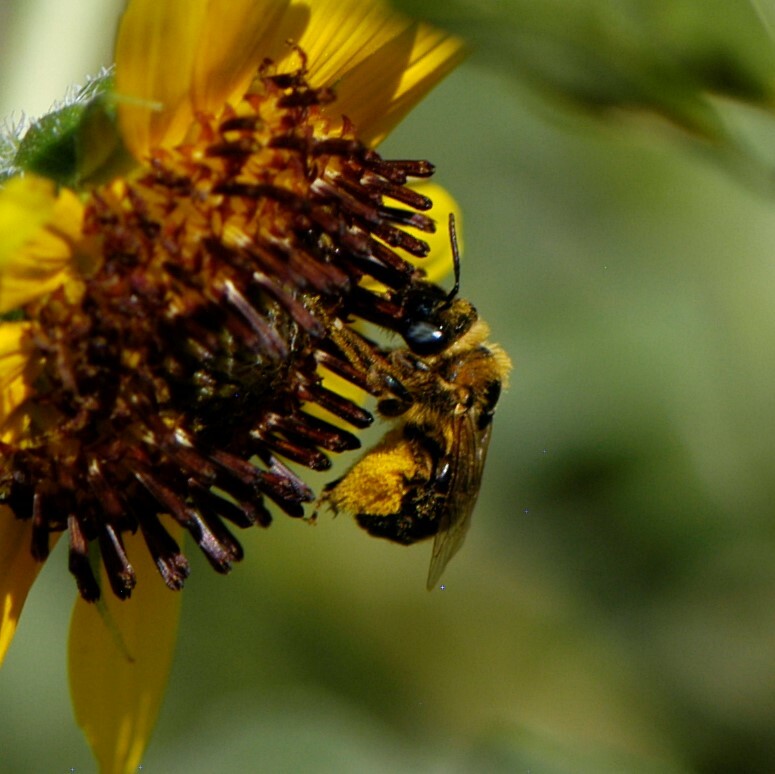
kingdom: Animalia
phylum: Arthropoda
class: Insecta
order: Hymenoptera
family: Apidae
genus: Melissodes
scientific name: Melissodes
